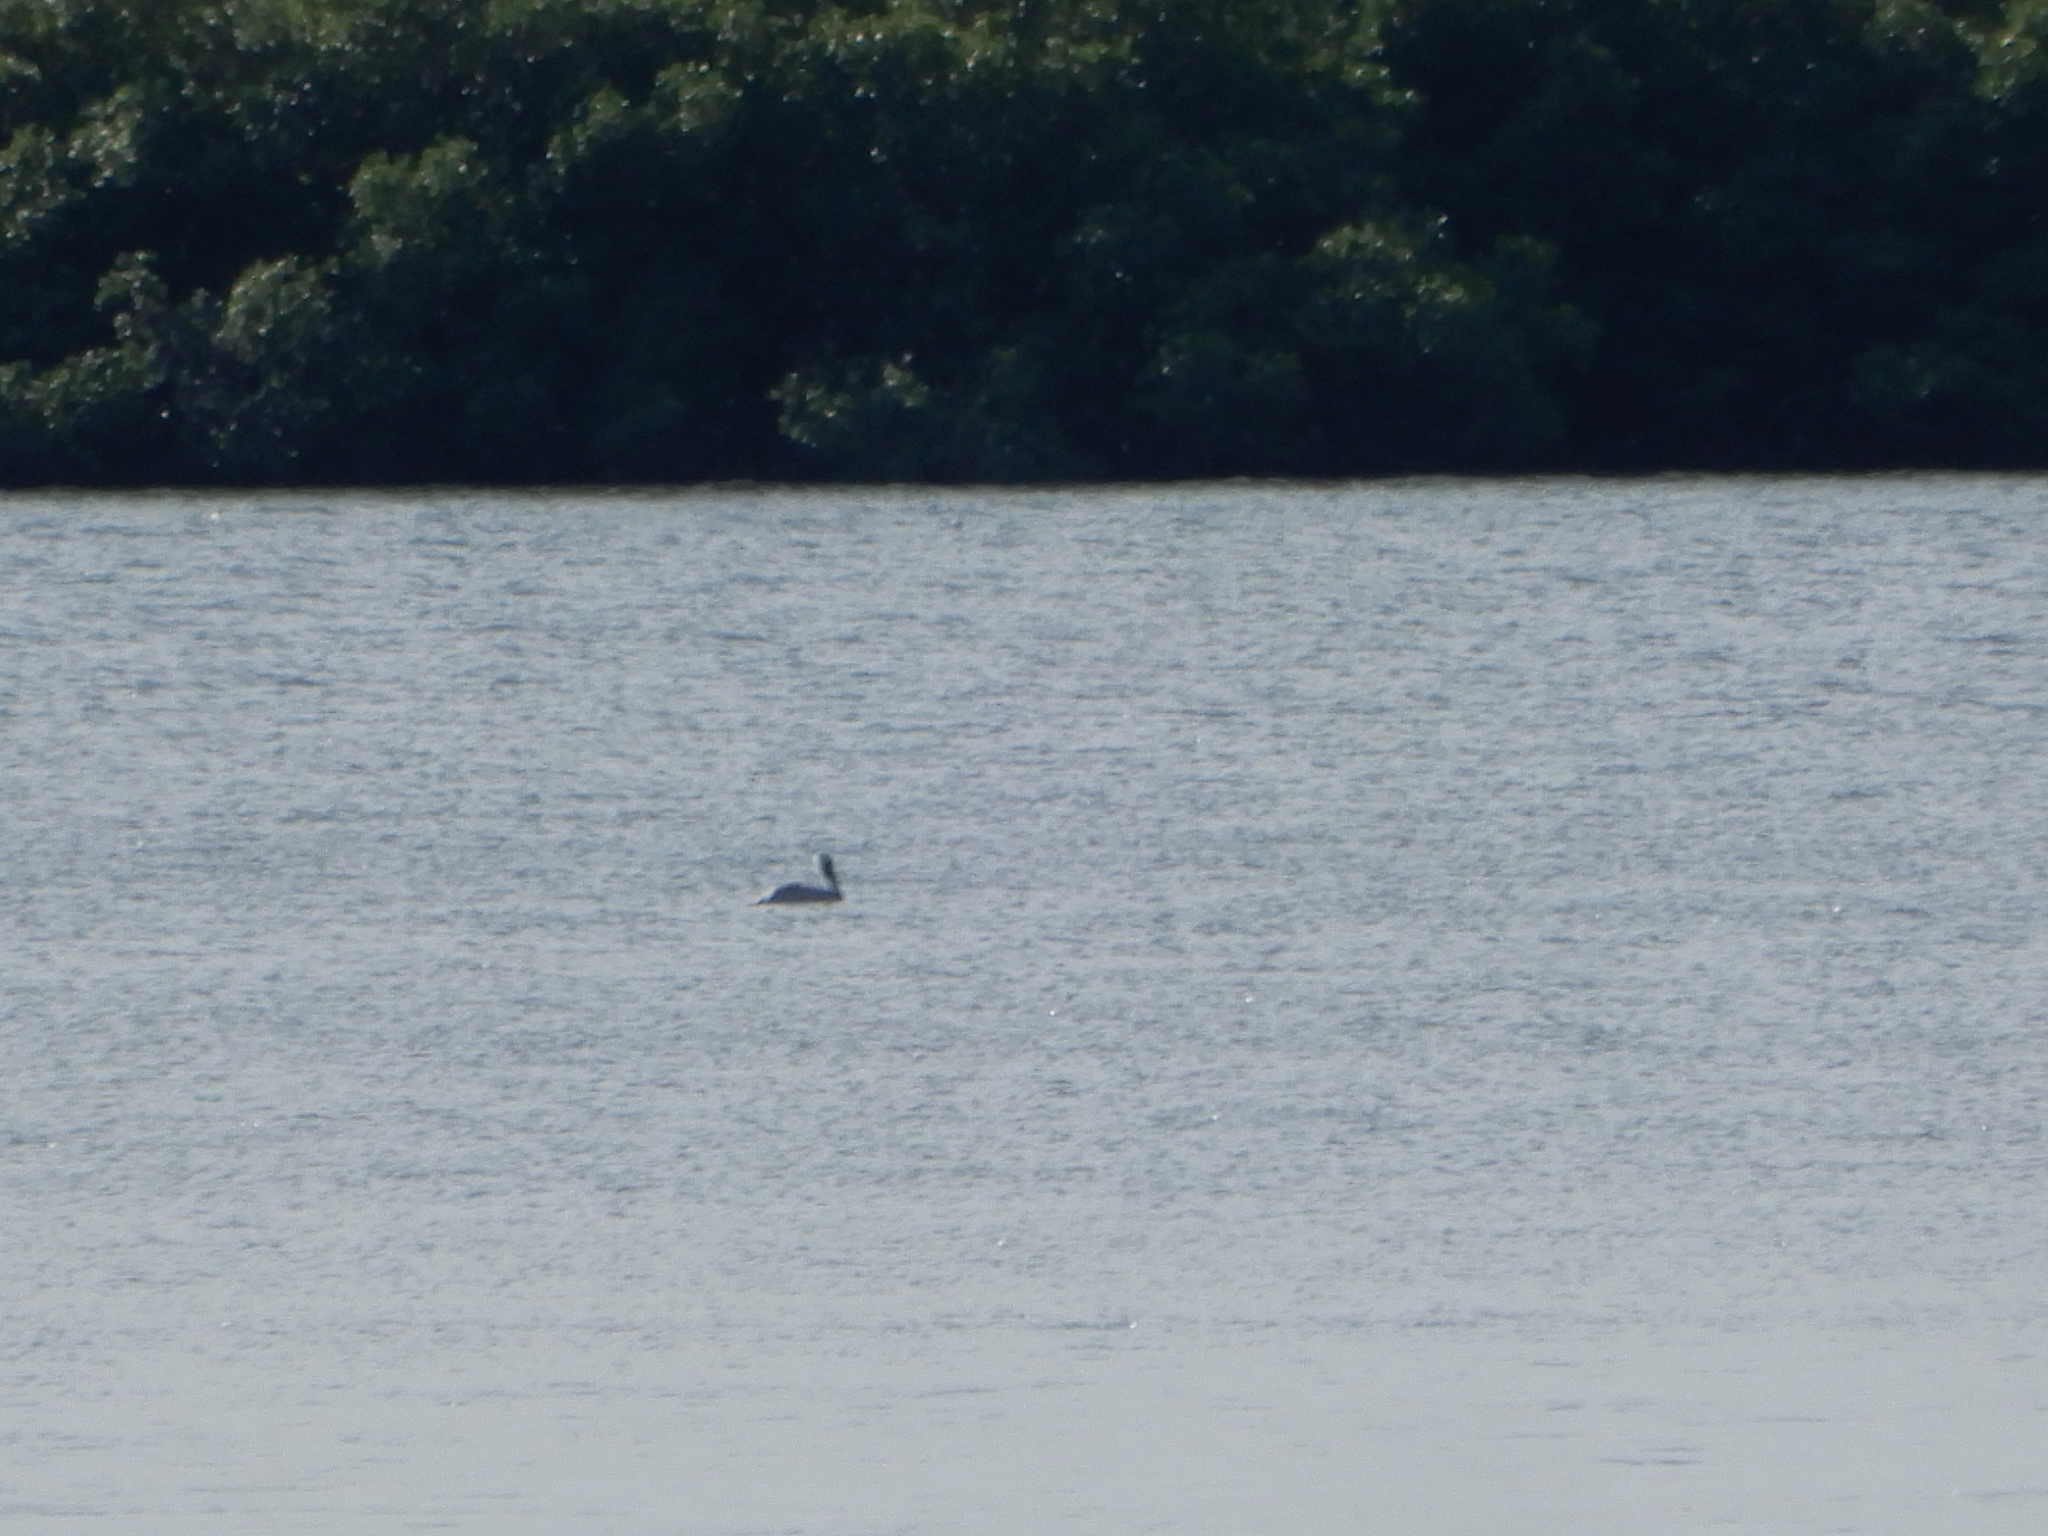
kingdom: Animalia
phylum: Chordata
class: Aves
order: Pelecaniformes
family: Pelecanidae
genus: Pelecanus
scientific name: Pelecanus occidentalis
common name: Brown pelican
